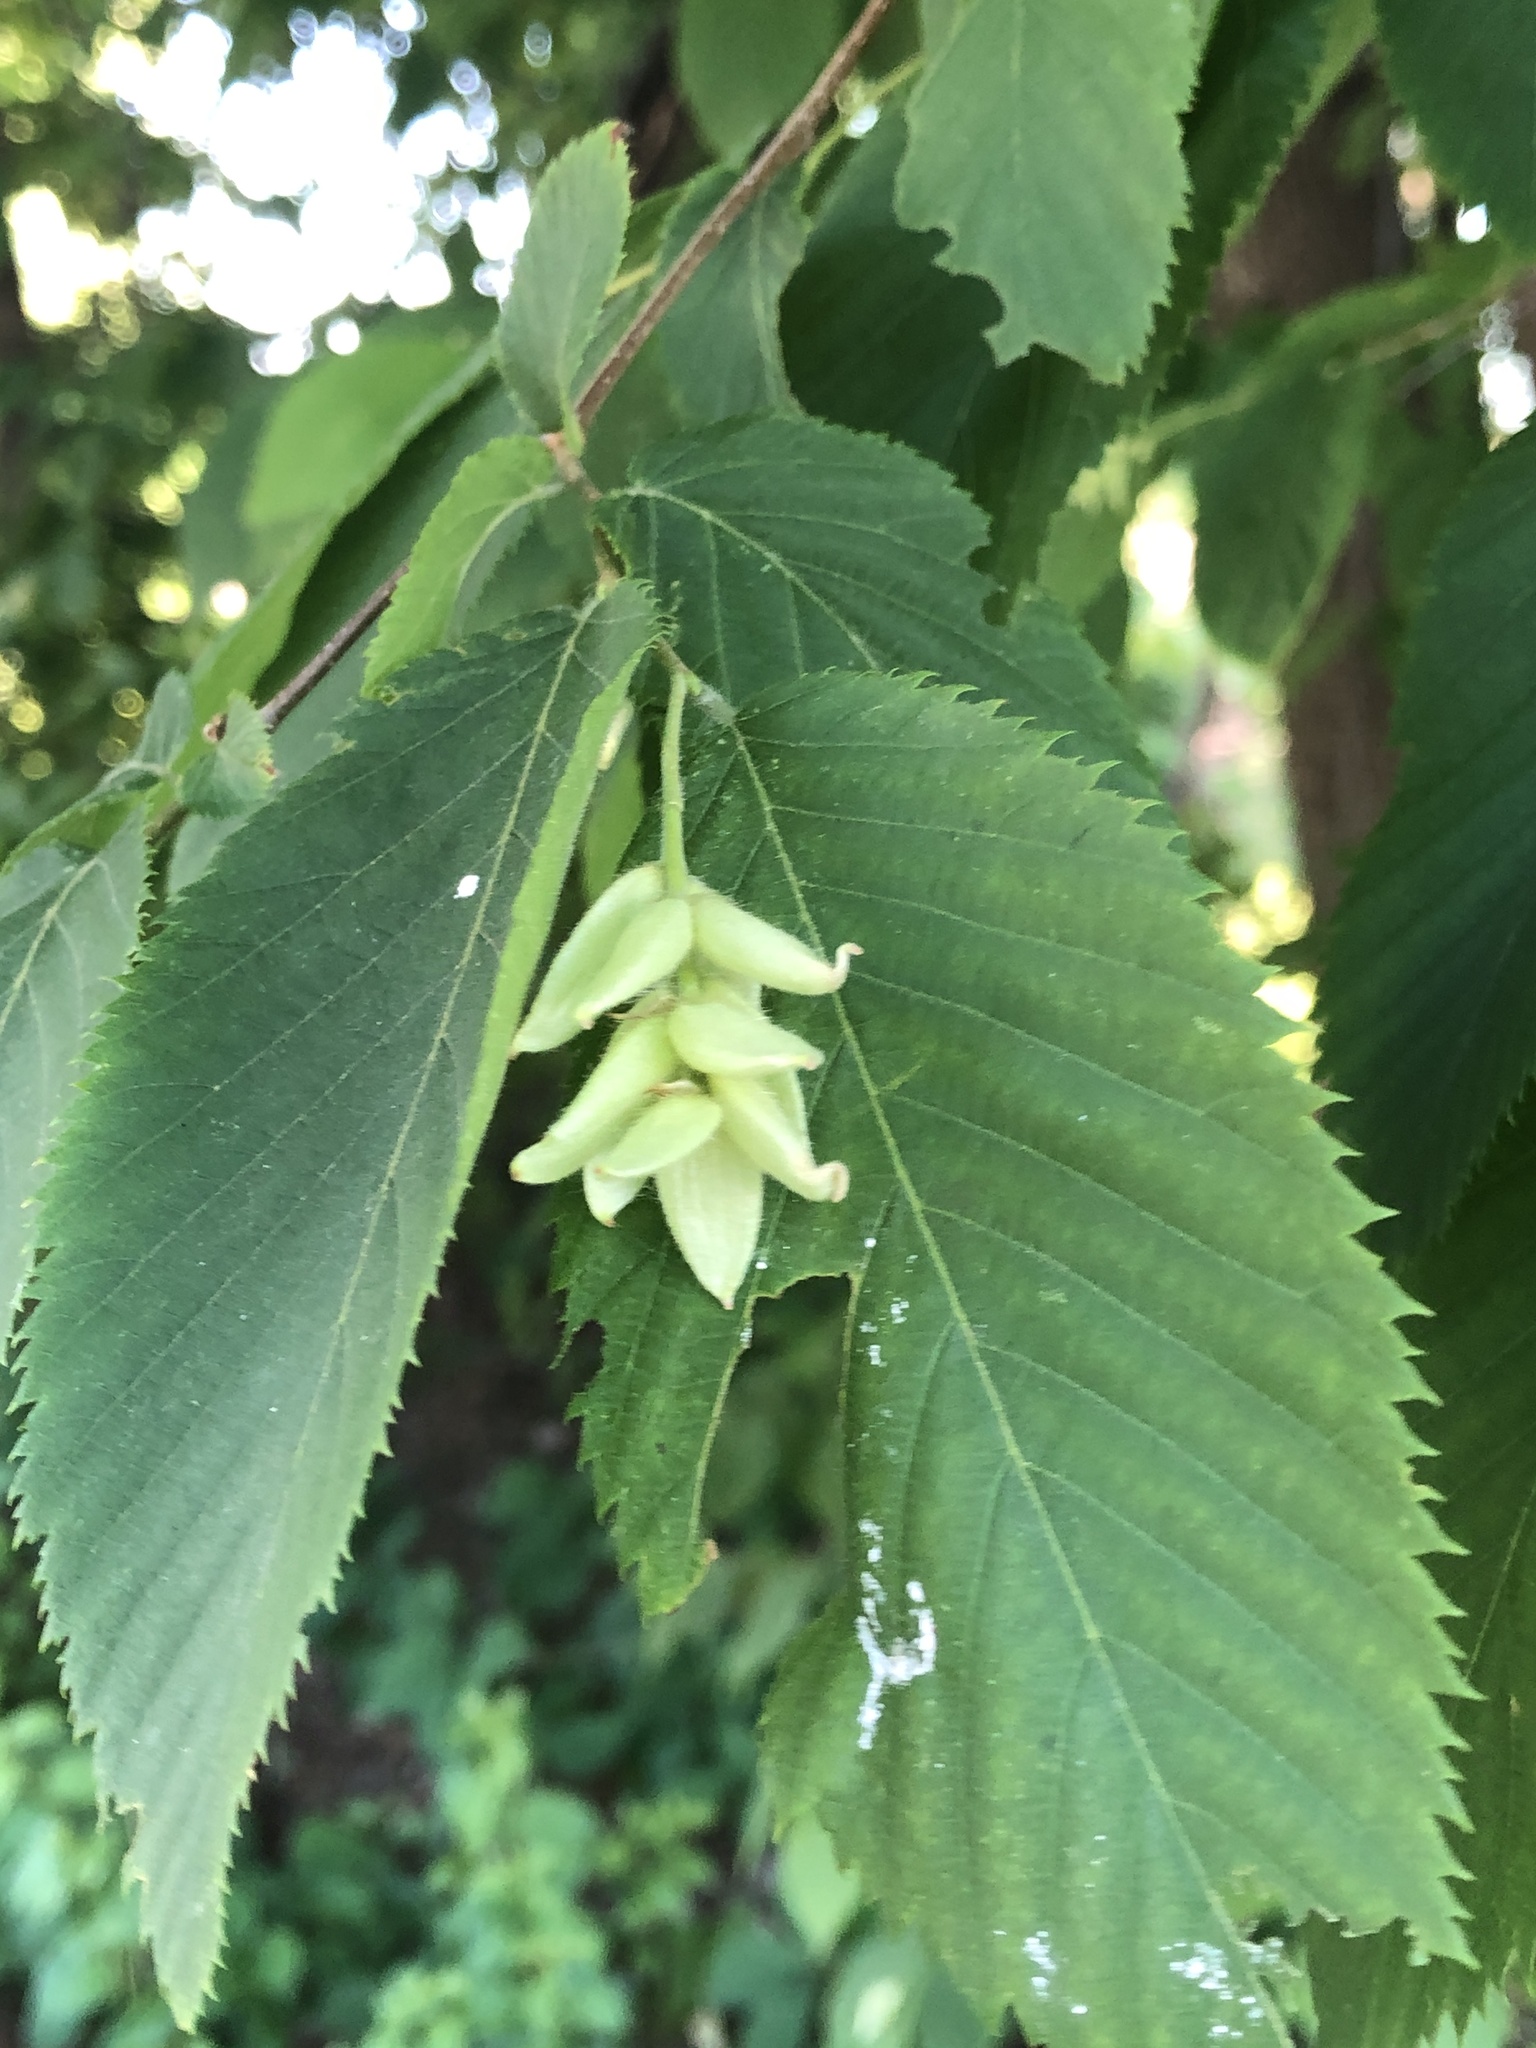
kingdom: Plantae
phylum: Tracheophyta
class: Magnoliopsida
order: Fagales
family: Betulaceae
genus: Ostrya
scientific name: Ostrya virginiana
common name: Ironwood
